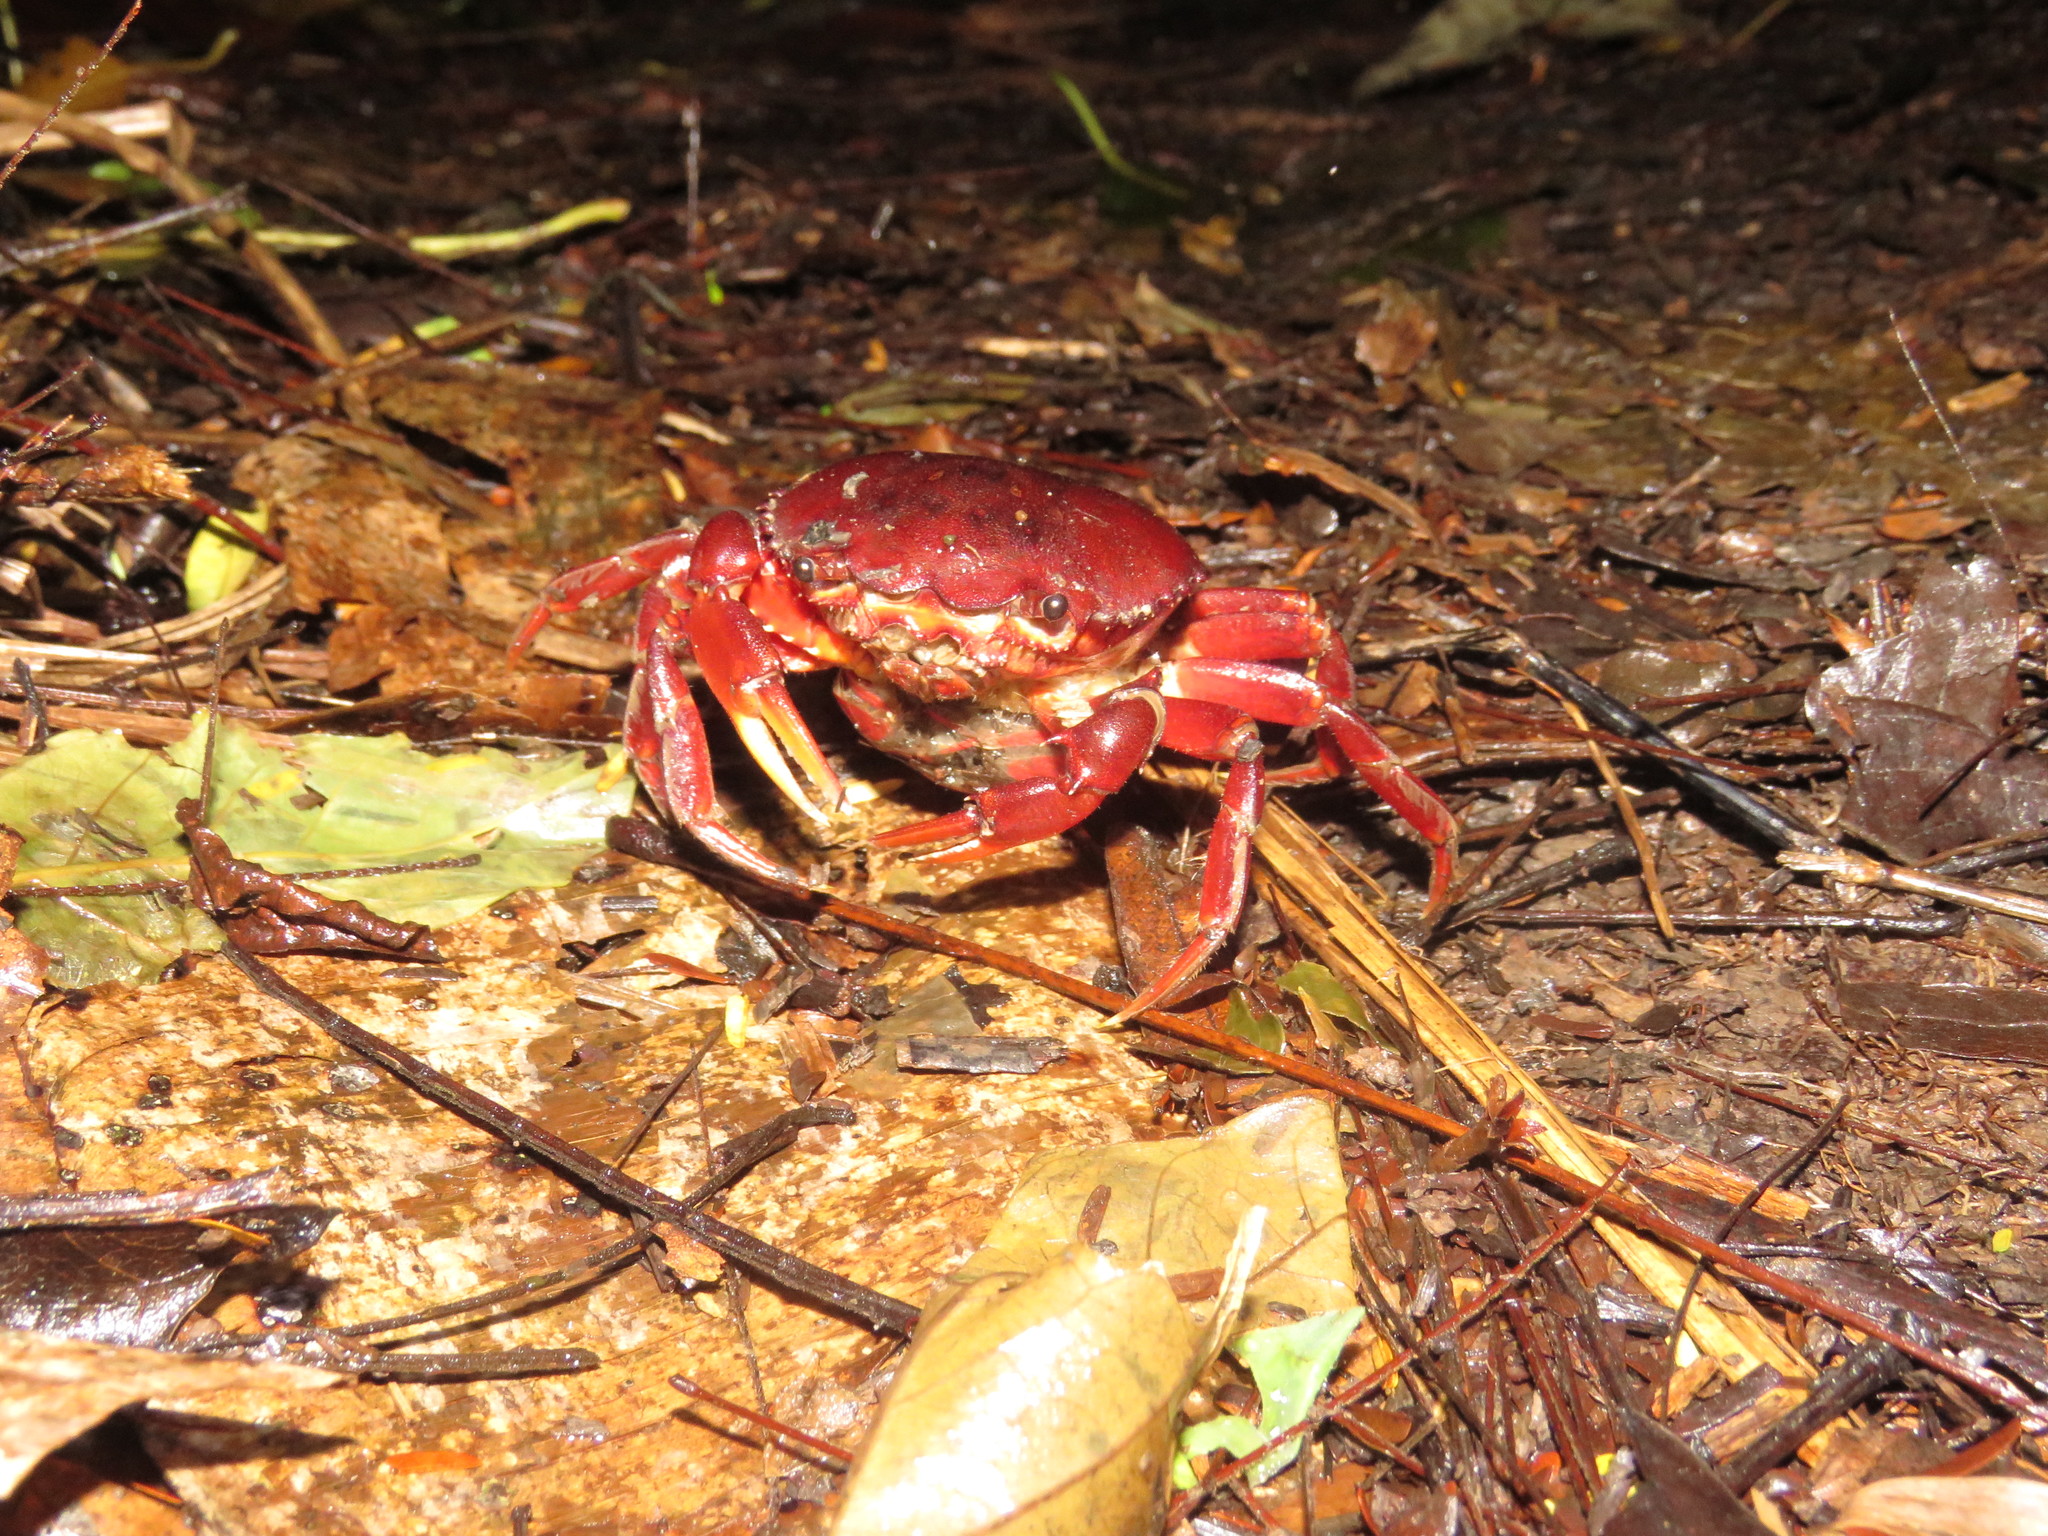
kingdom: Animalia
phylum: Arthropoda
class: Malacostraca
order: Decapoda
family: Trichodactylidae
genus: Dilocarcinus
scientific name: Dilocarcinus pagei
